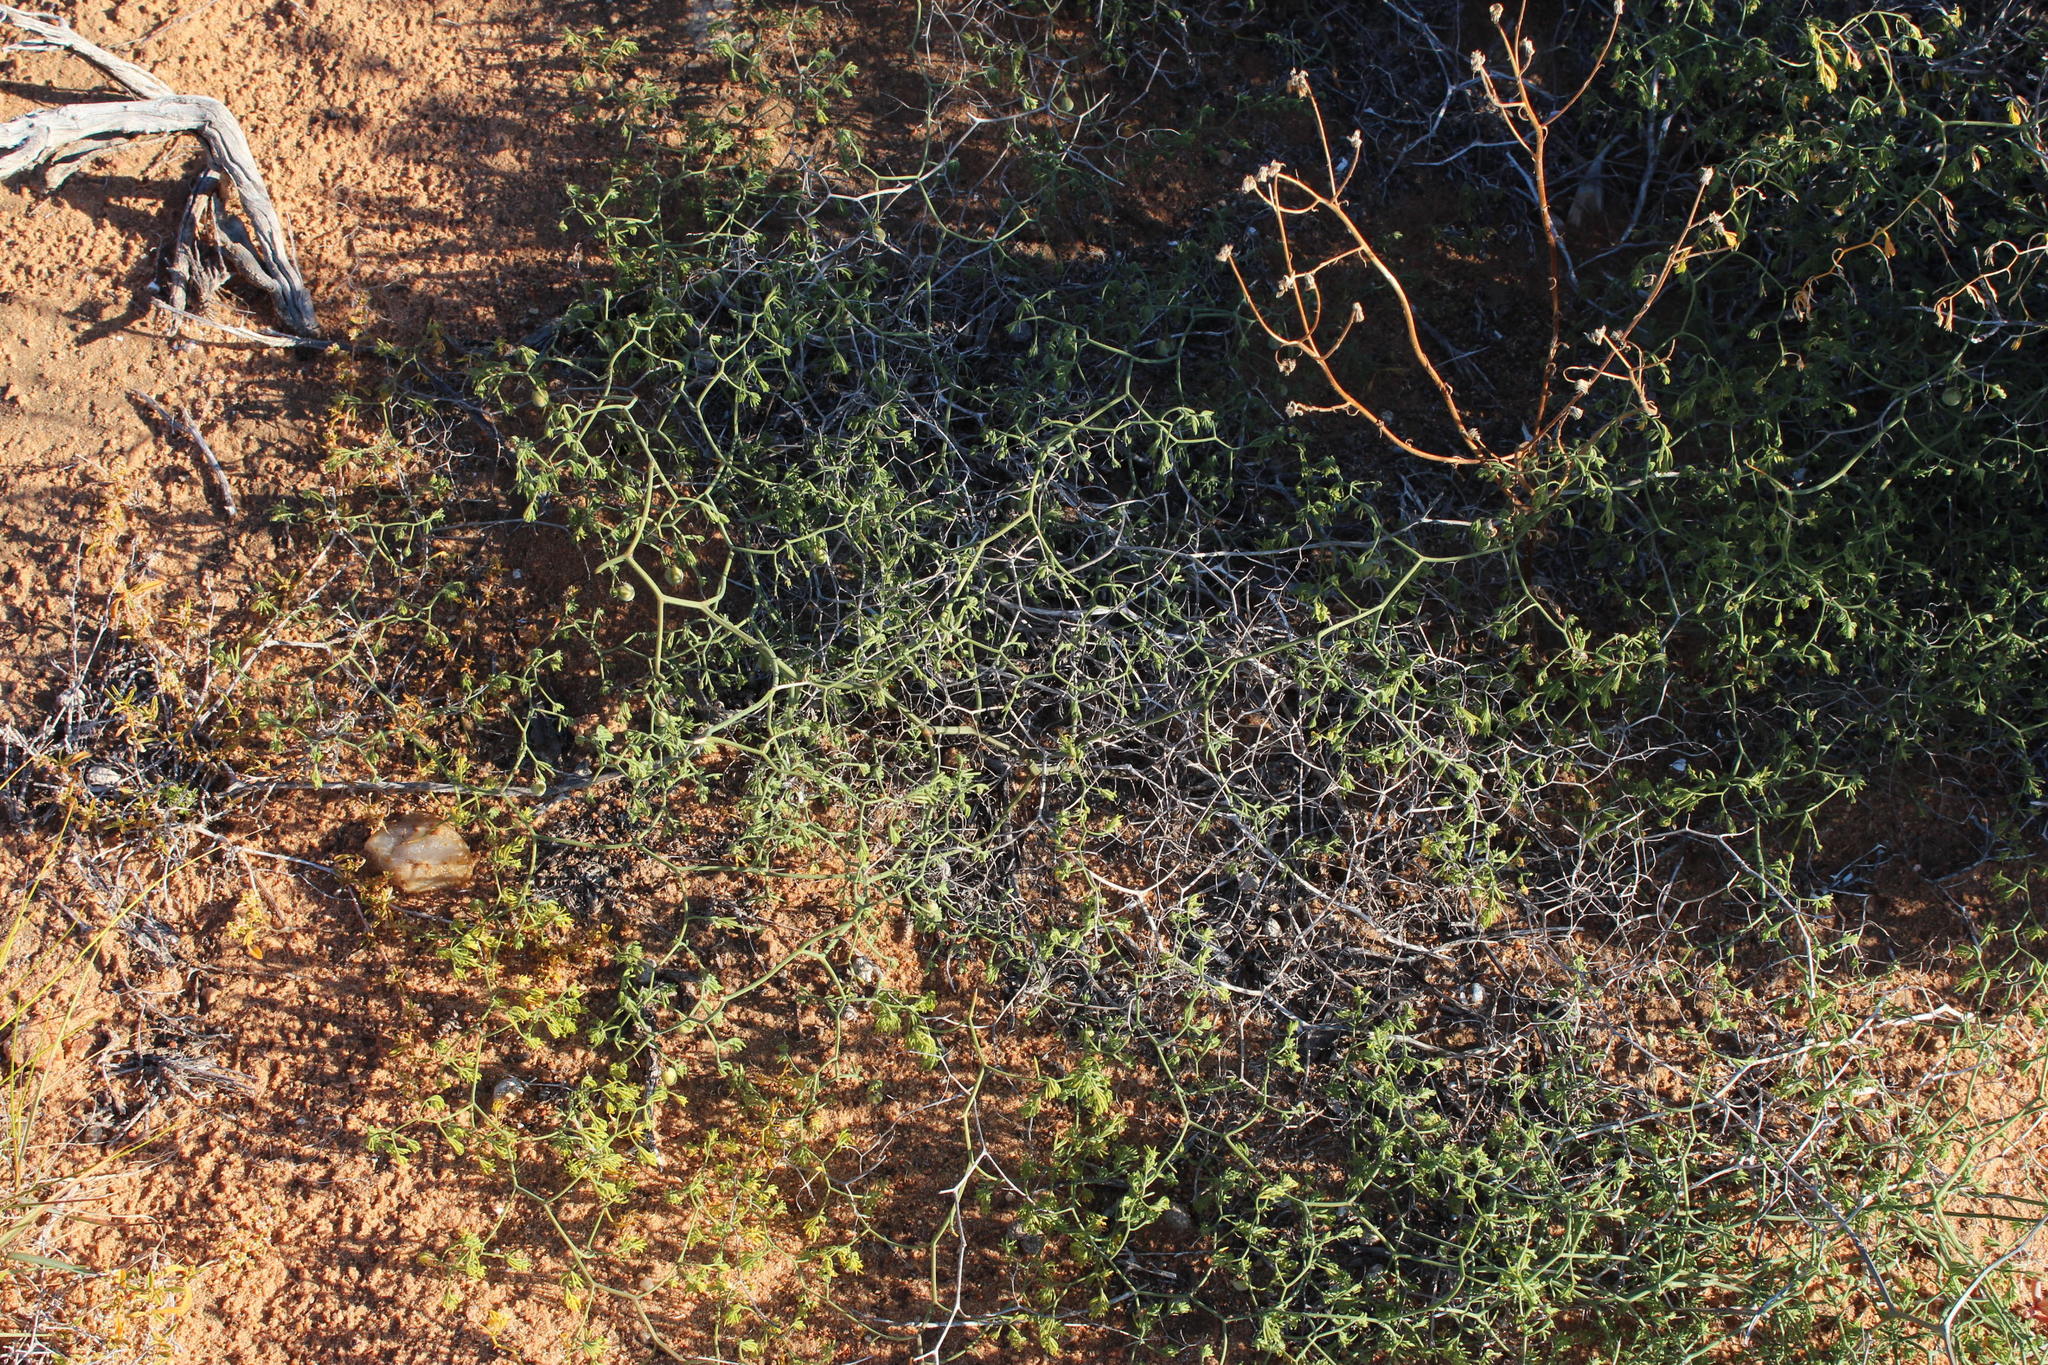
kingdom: Plantae
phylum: Tracheophyta
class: Liliopsida
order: Asparagales
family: Asparagaceae
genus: Asparagus
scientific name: Asparagus declinatus
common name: Bridal-creeper
